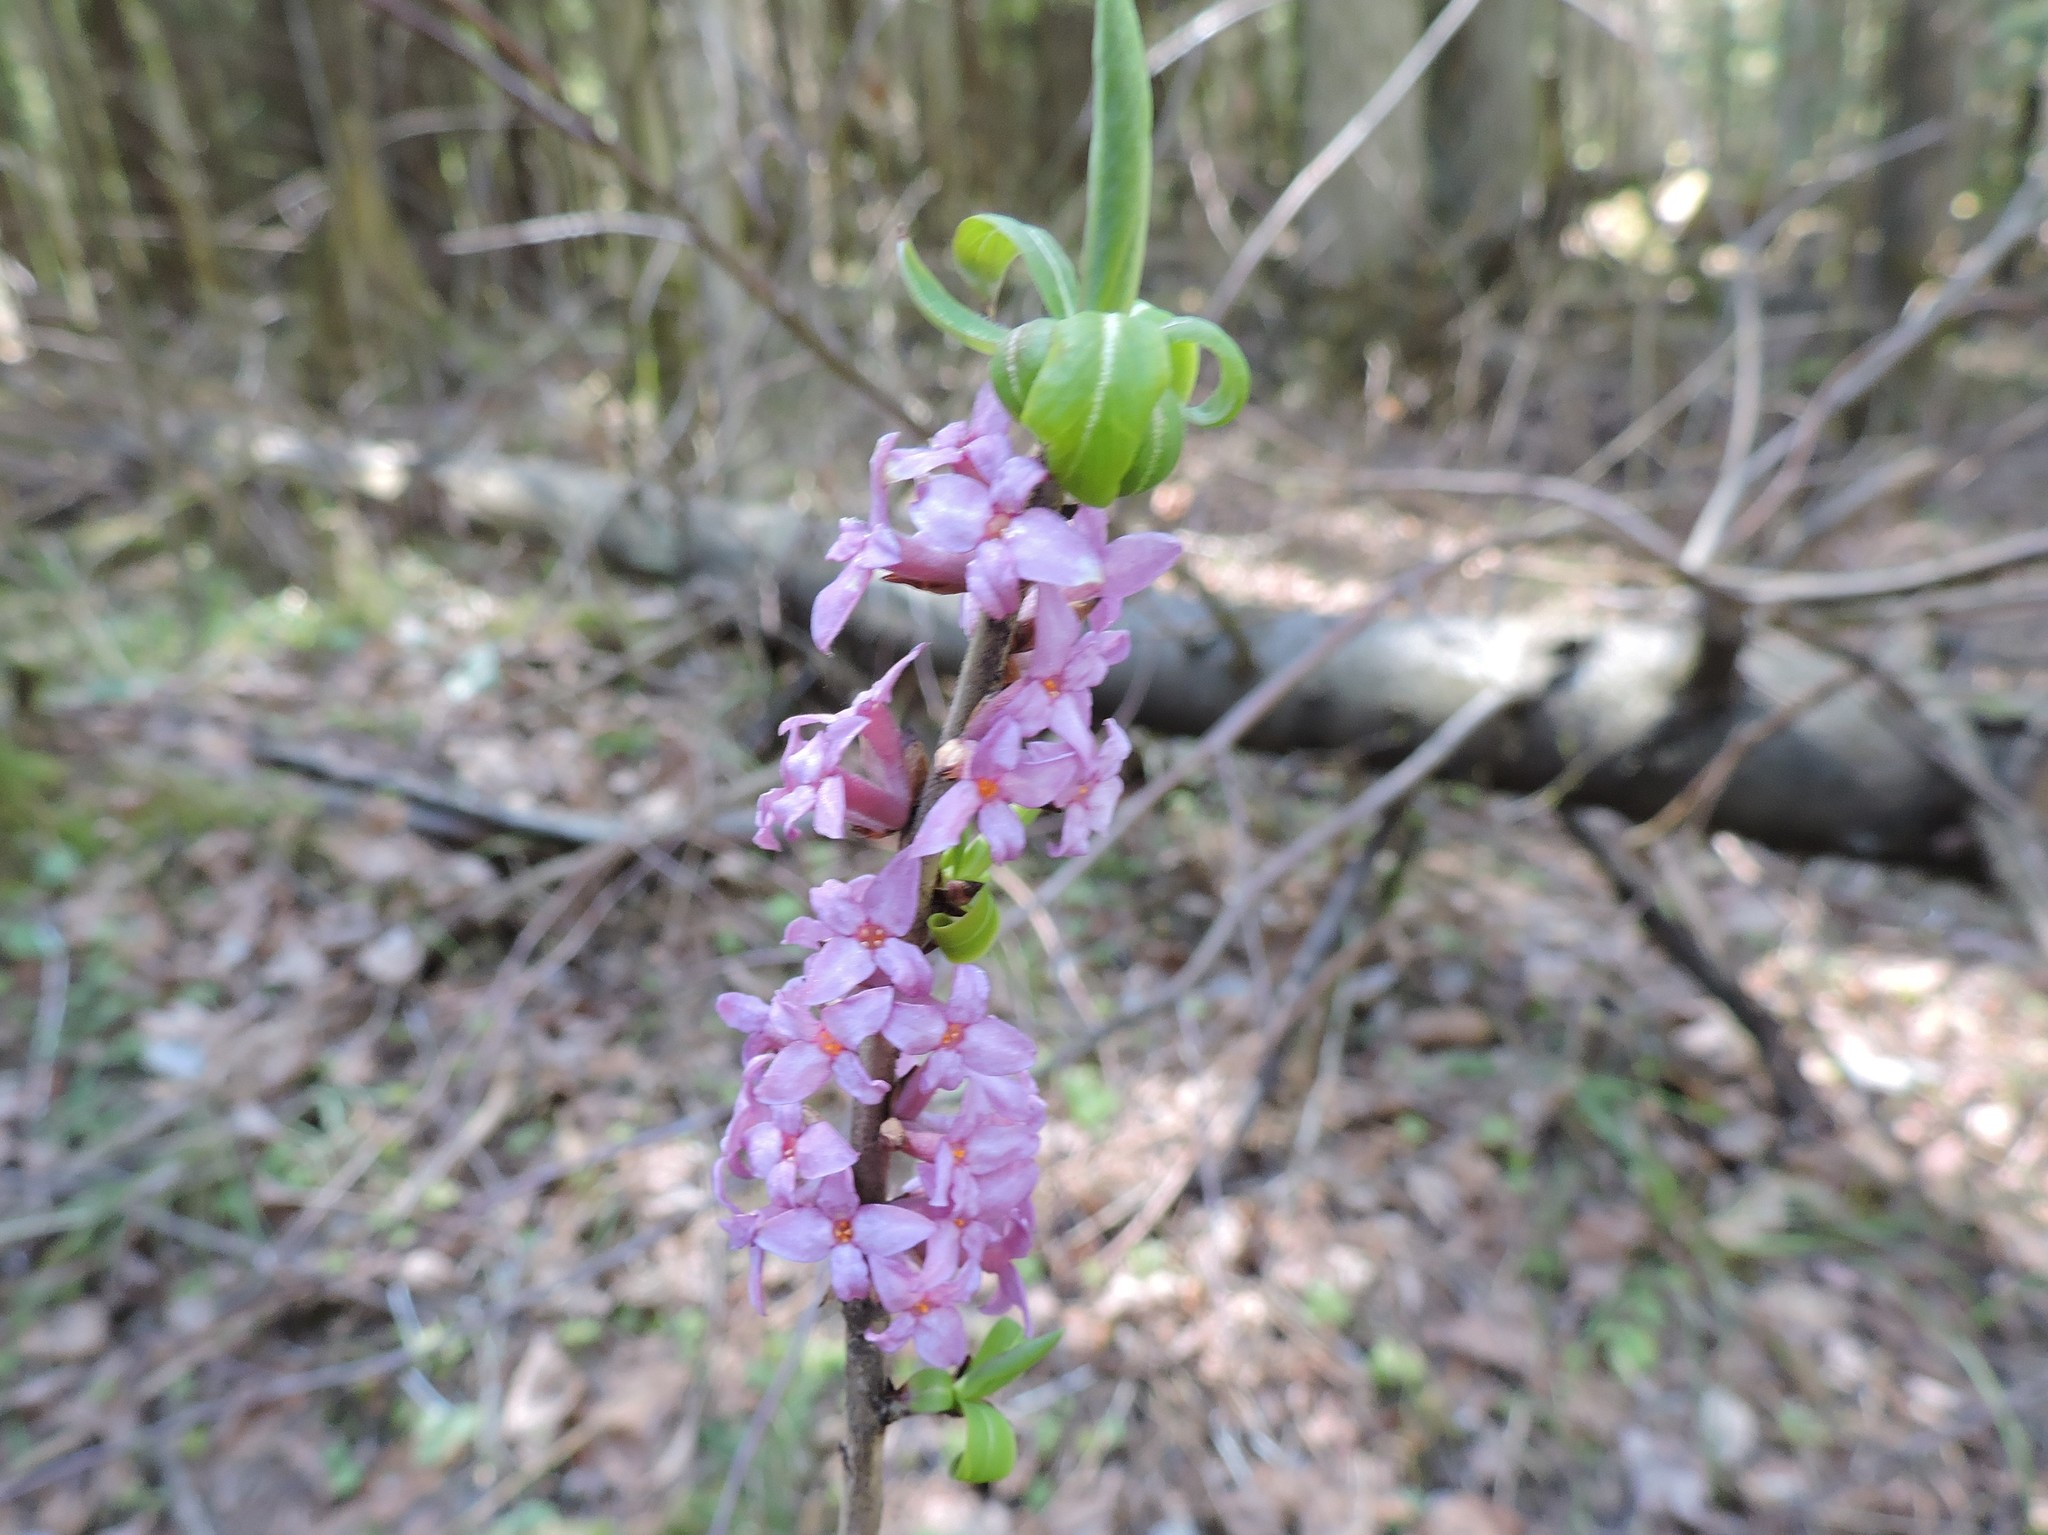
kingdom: Plantae
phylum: Tracheophyta
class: Magnoliopsida
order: Malvales
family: Thymelaeaceae
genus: Daphne
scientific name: Daphne mezereum
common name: Mezereon
